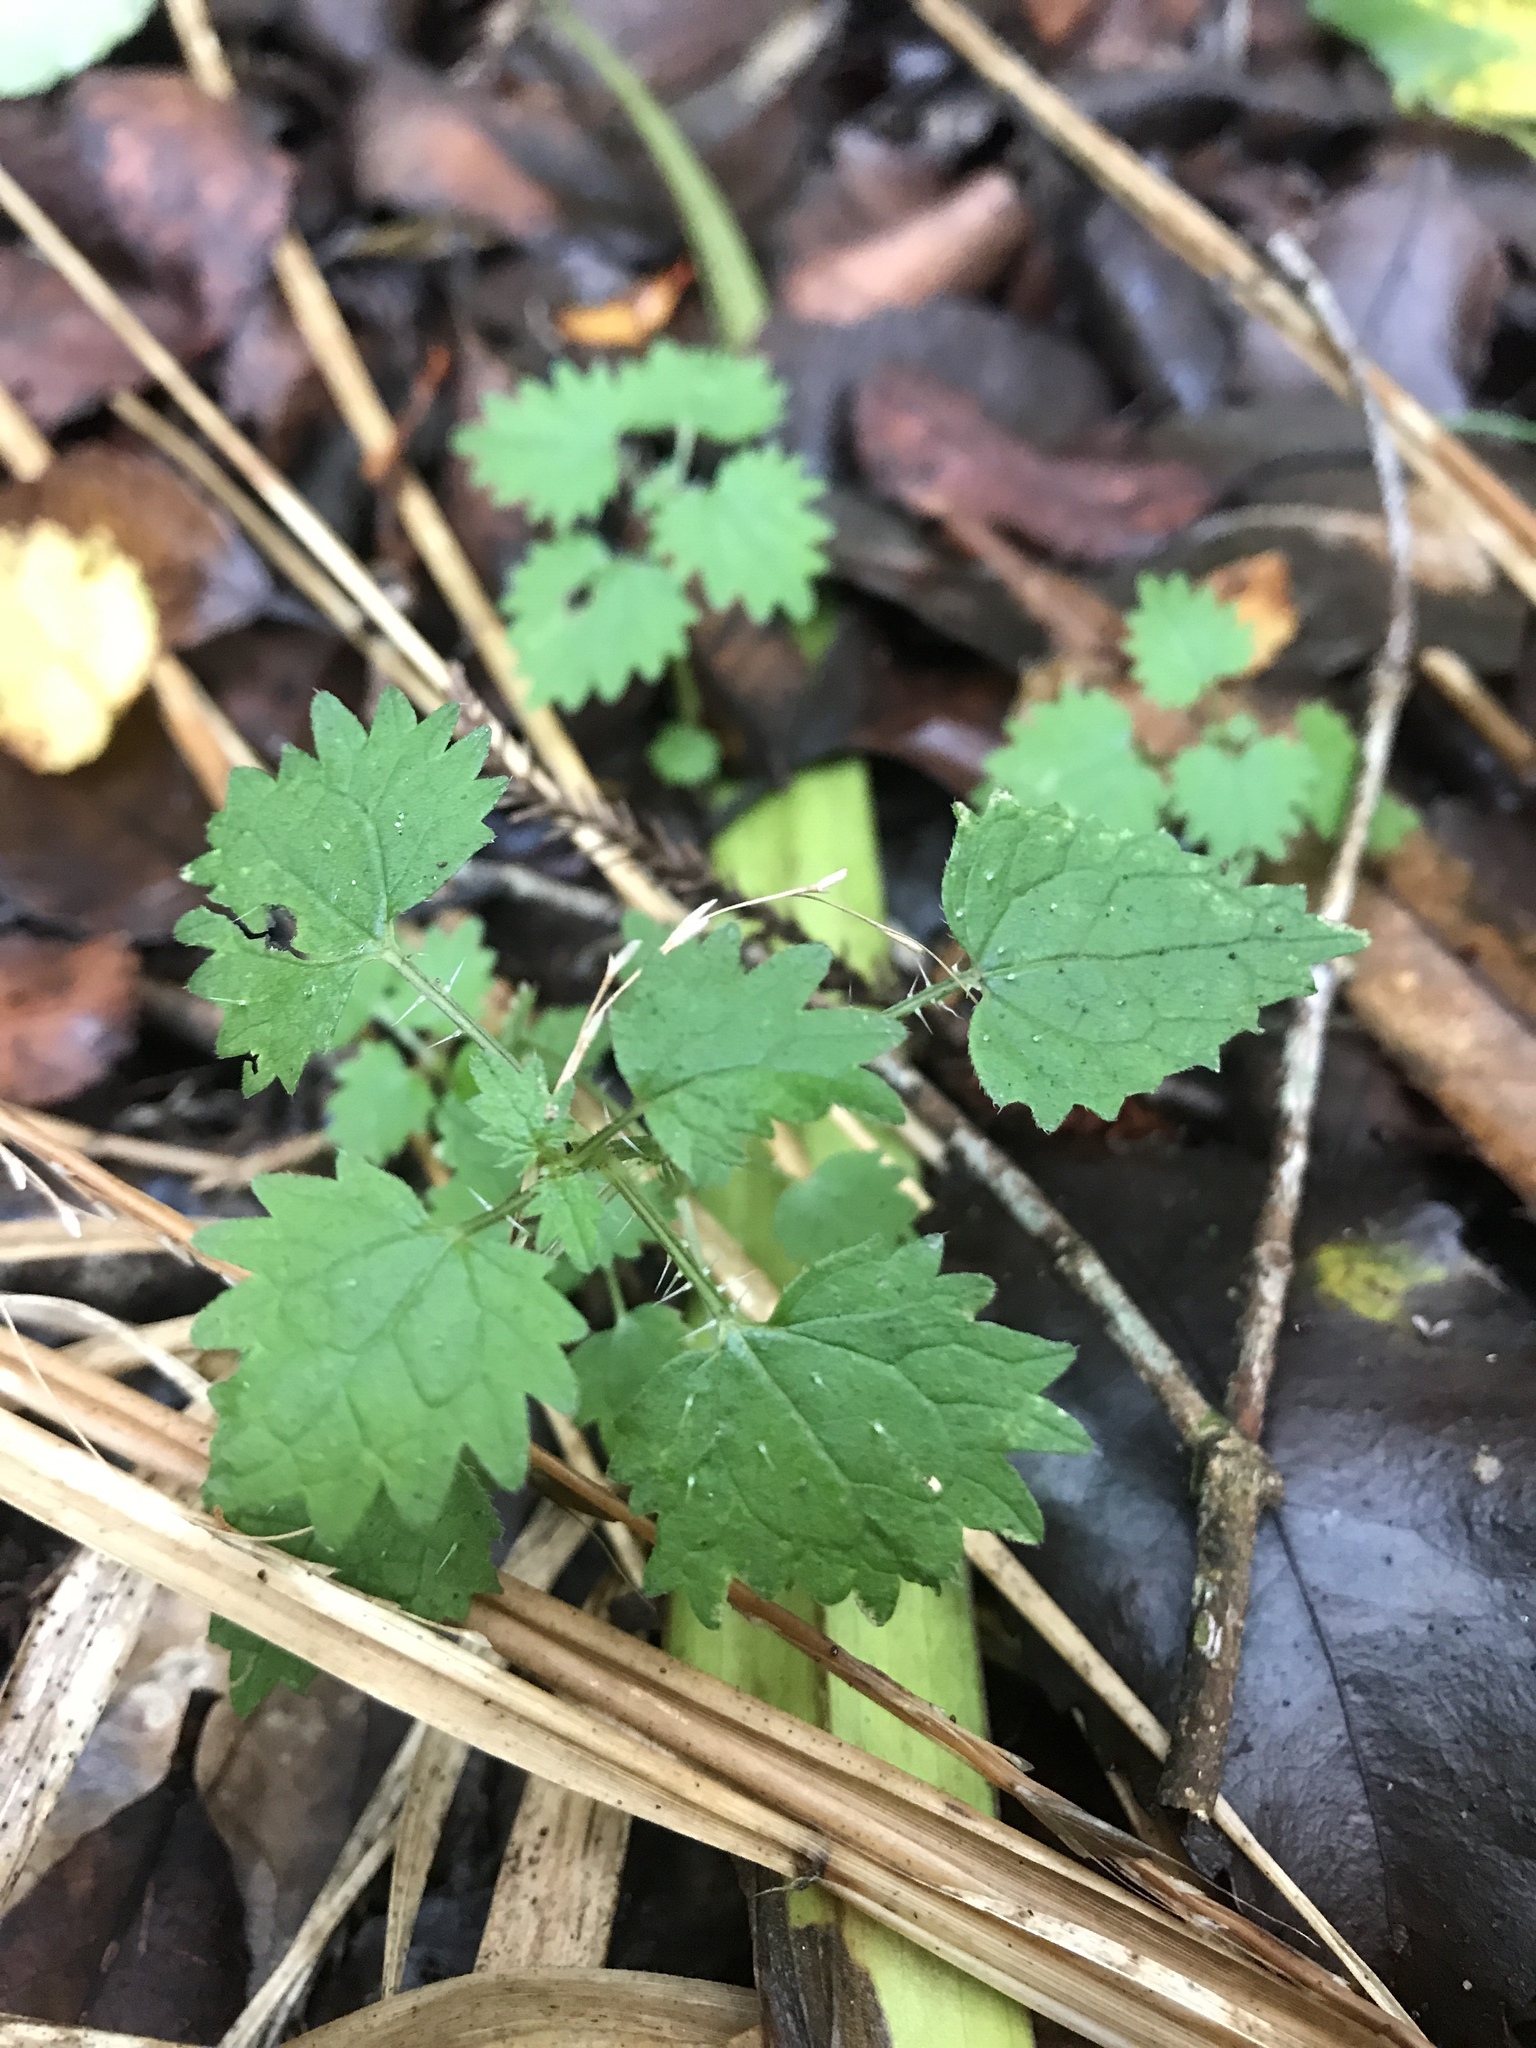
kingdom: Plantae
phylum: Tracheophyta
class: Magnoliopsida
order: Rosales
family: Urticaceae
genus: Urtica
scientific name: Urtica sykesii
